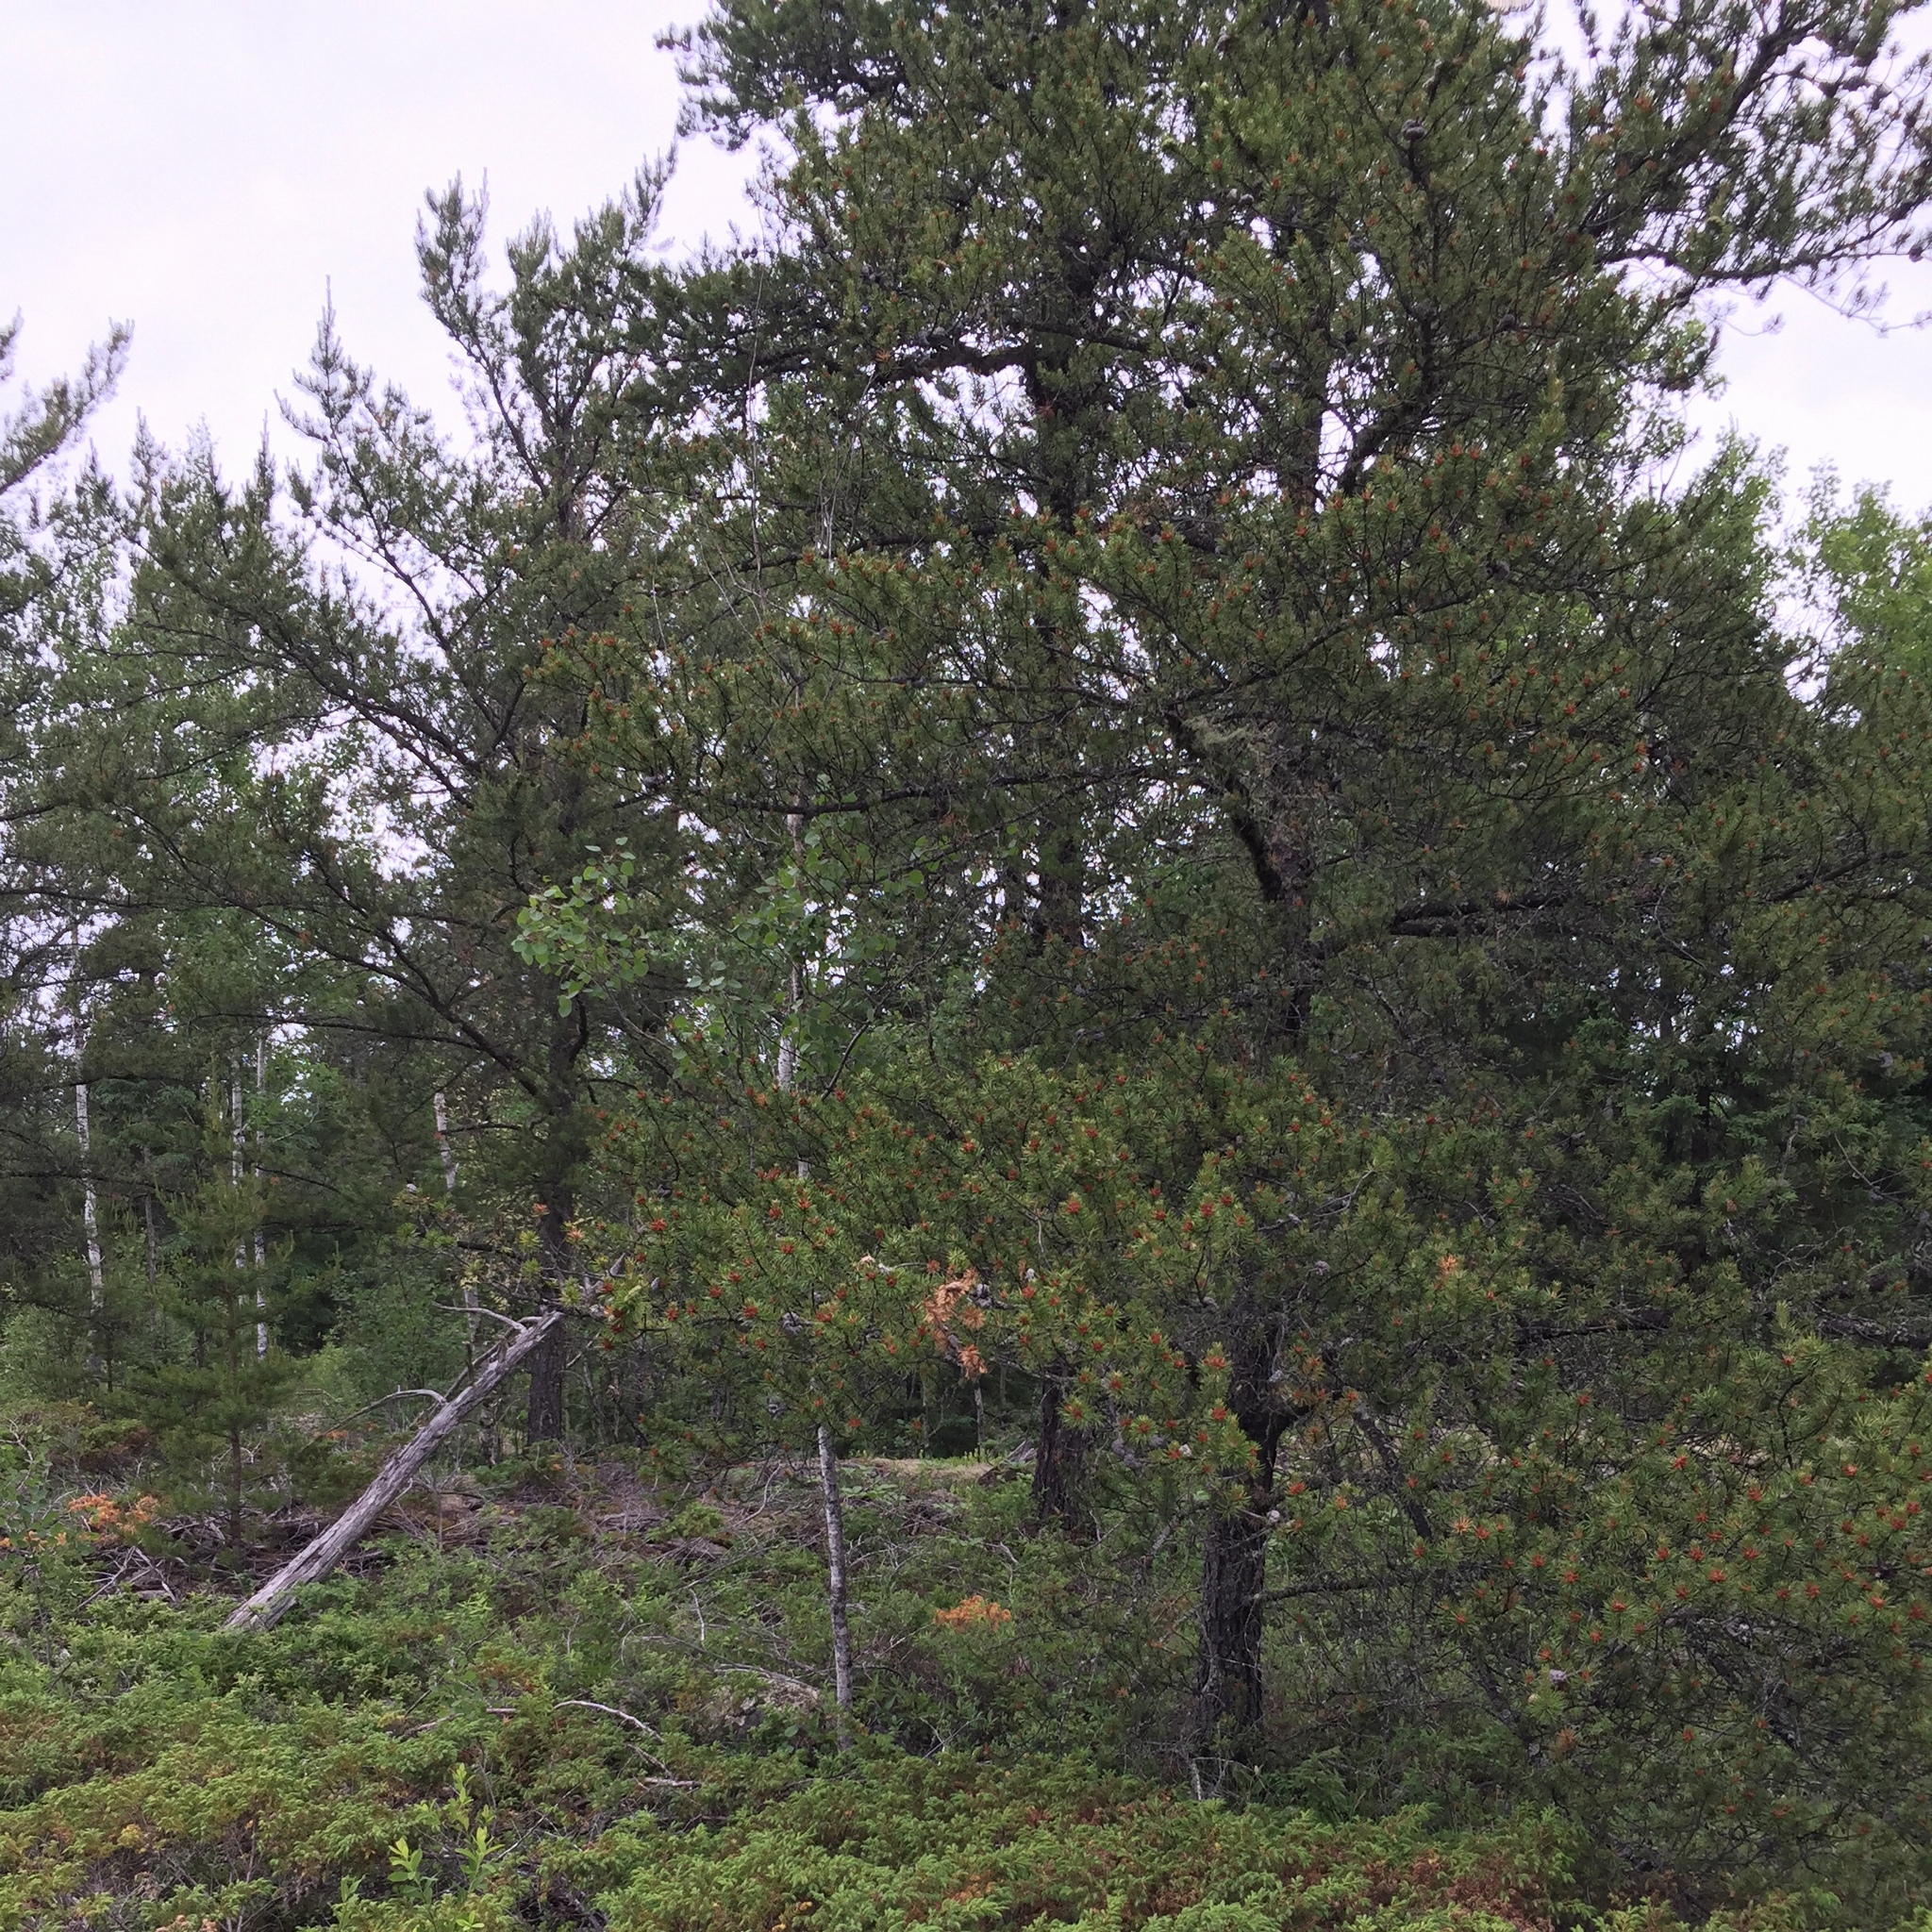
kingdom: Plantae
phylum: Tracheophyta
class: Pinopsida
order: Pinales
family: Pinaceae
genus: Pinus
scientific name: Pinus banksiana
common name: Jack pine
